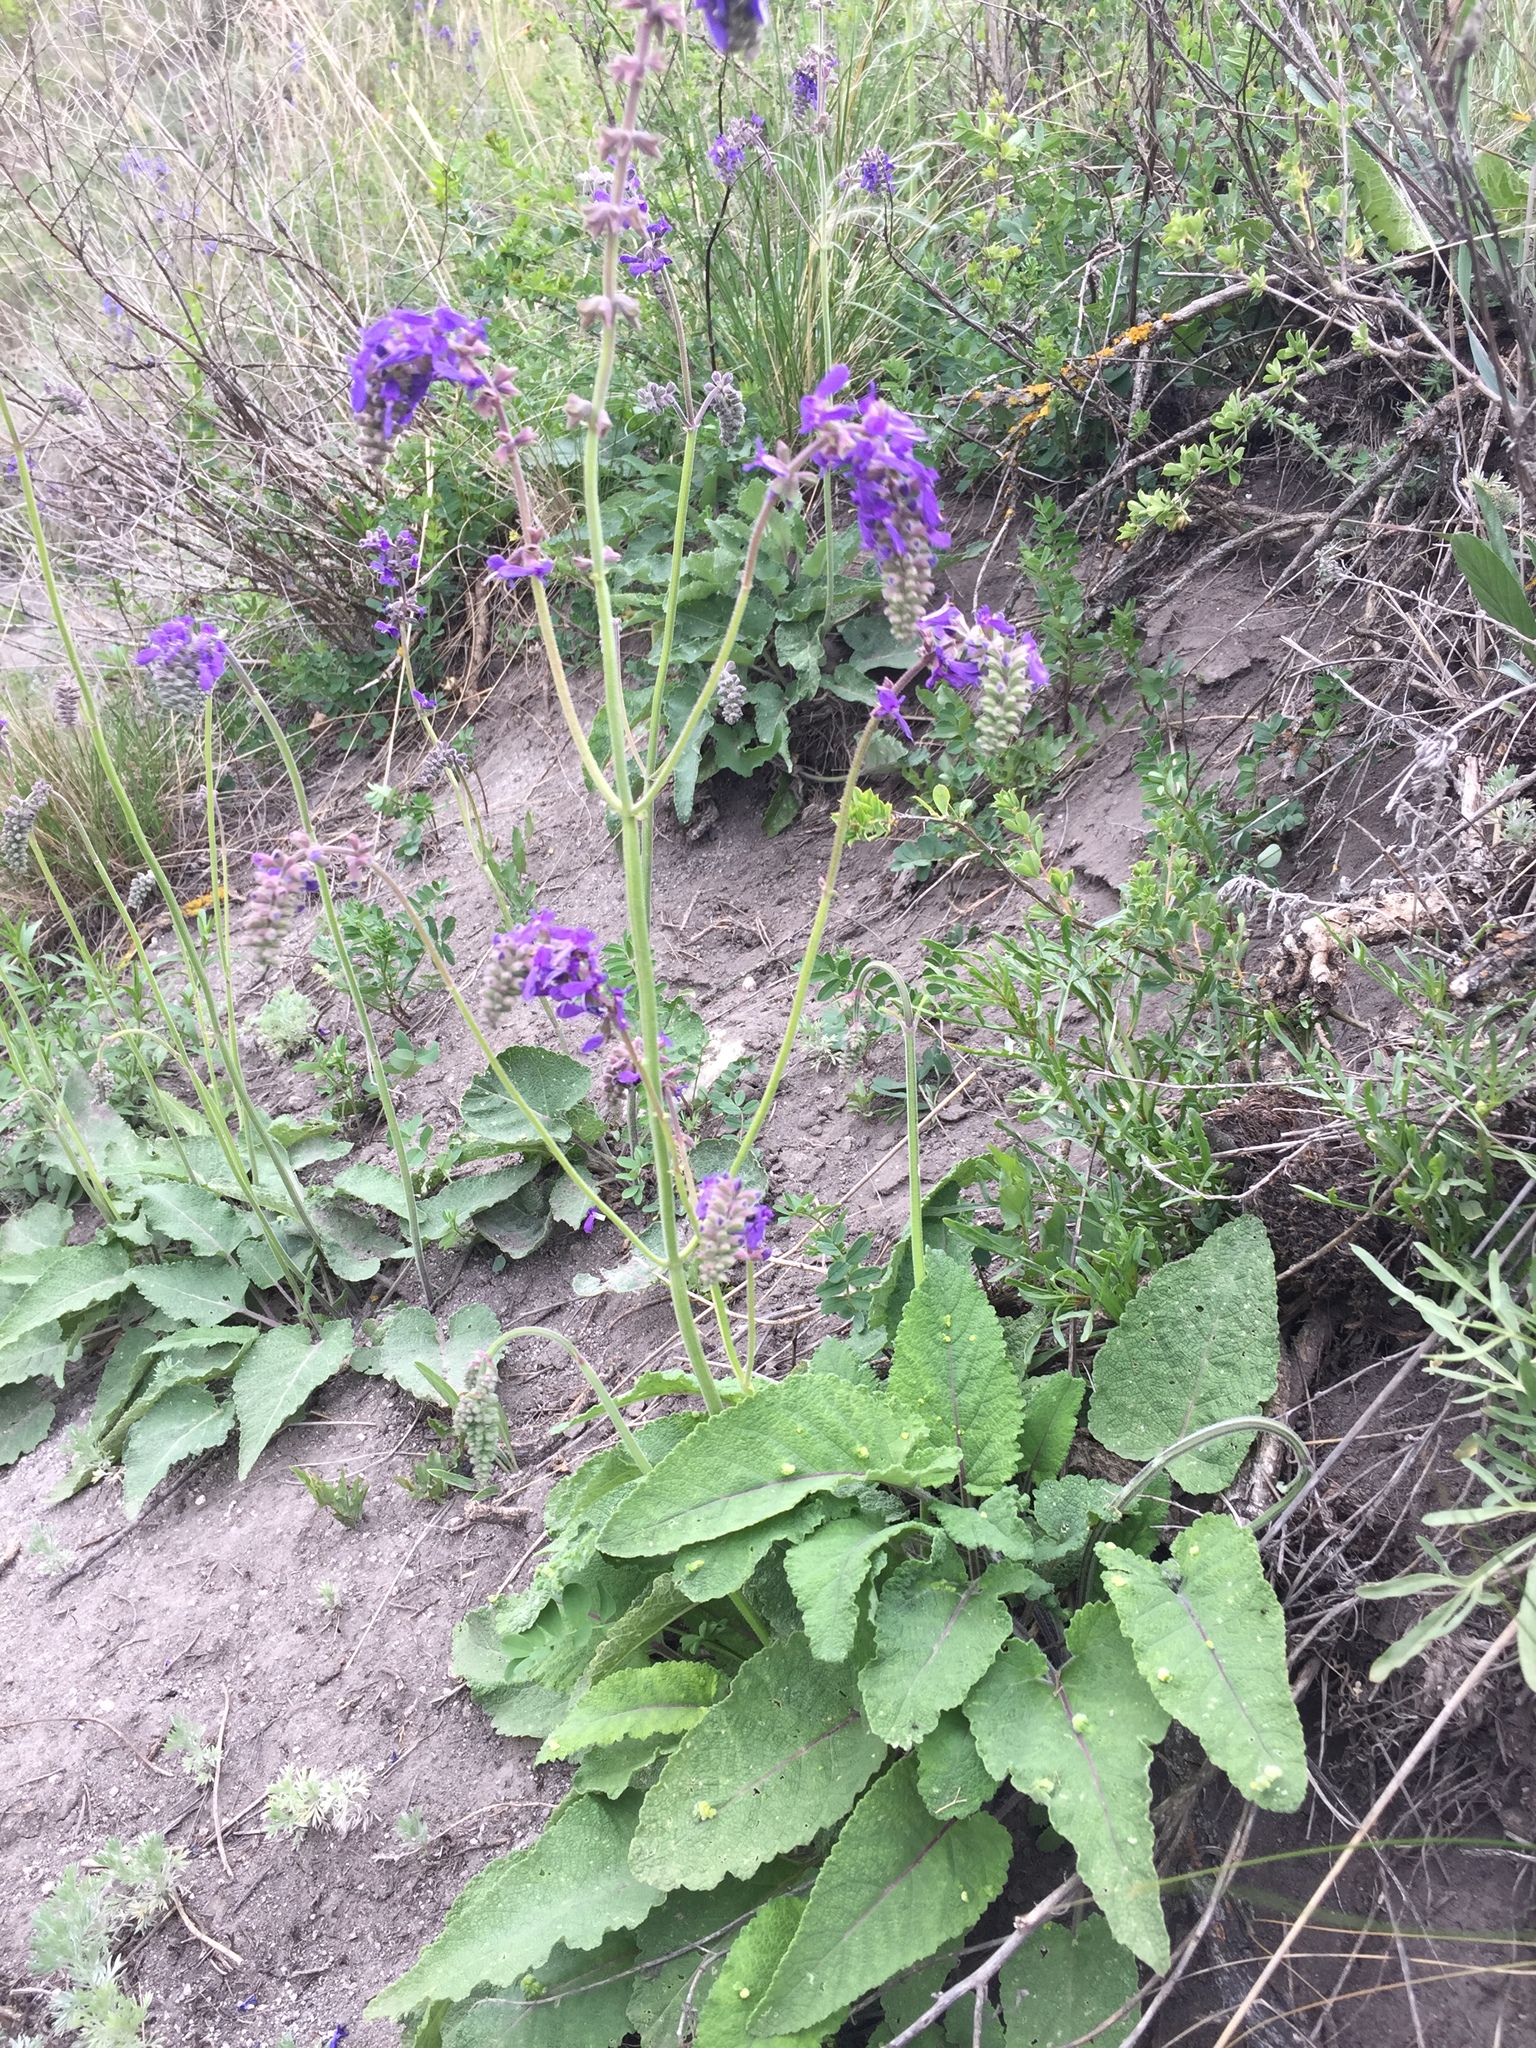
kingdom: Plantae
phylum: Tracheophyta
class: Magnoliopsida
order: Lamiales
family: Lamiaceae
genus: Salvia
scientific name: Salvia nutans
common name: Nodding sage
